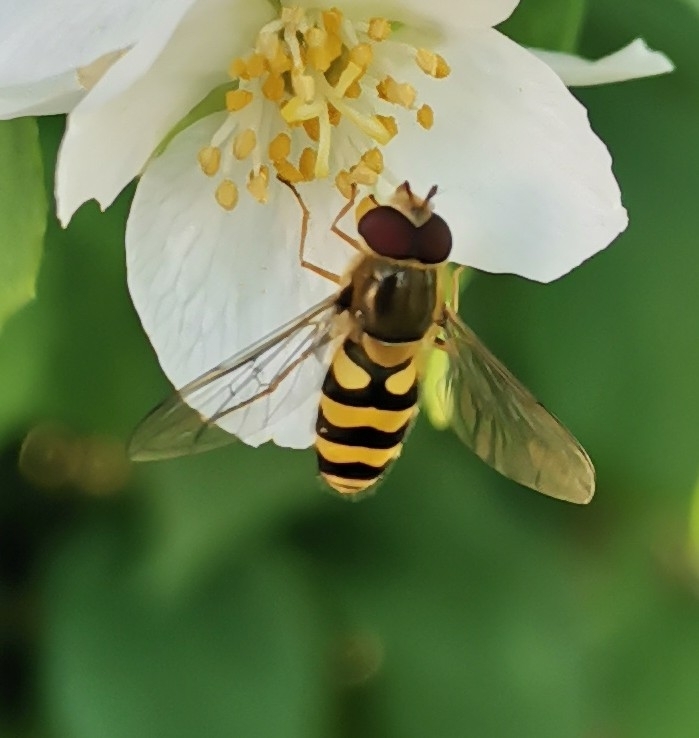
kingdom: Animalia
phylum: Arthropoda
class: Insecta
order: Diptera
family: Syrphidae
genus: Syrphus
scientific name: Syrphus
